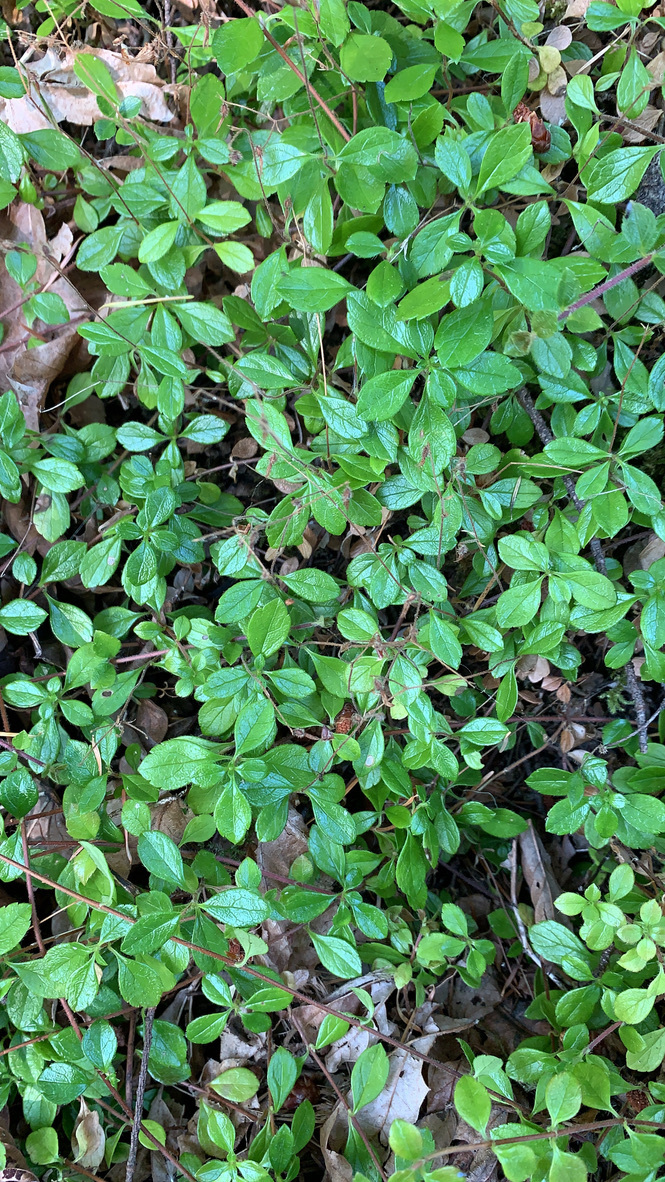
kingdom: Plantae
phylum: Tracheophyta
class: Magnoliopsida
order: Dipsacales
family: Caprifoliaceae
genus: Linnaea
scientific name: Linnaea borealis
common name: Twinflower
